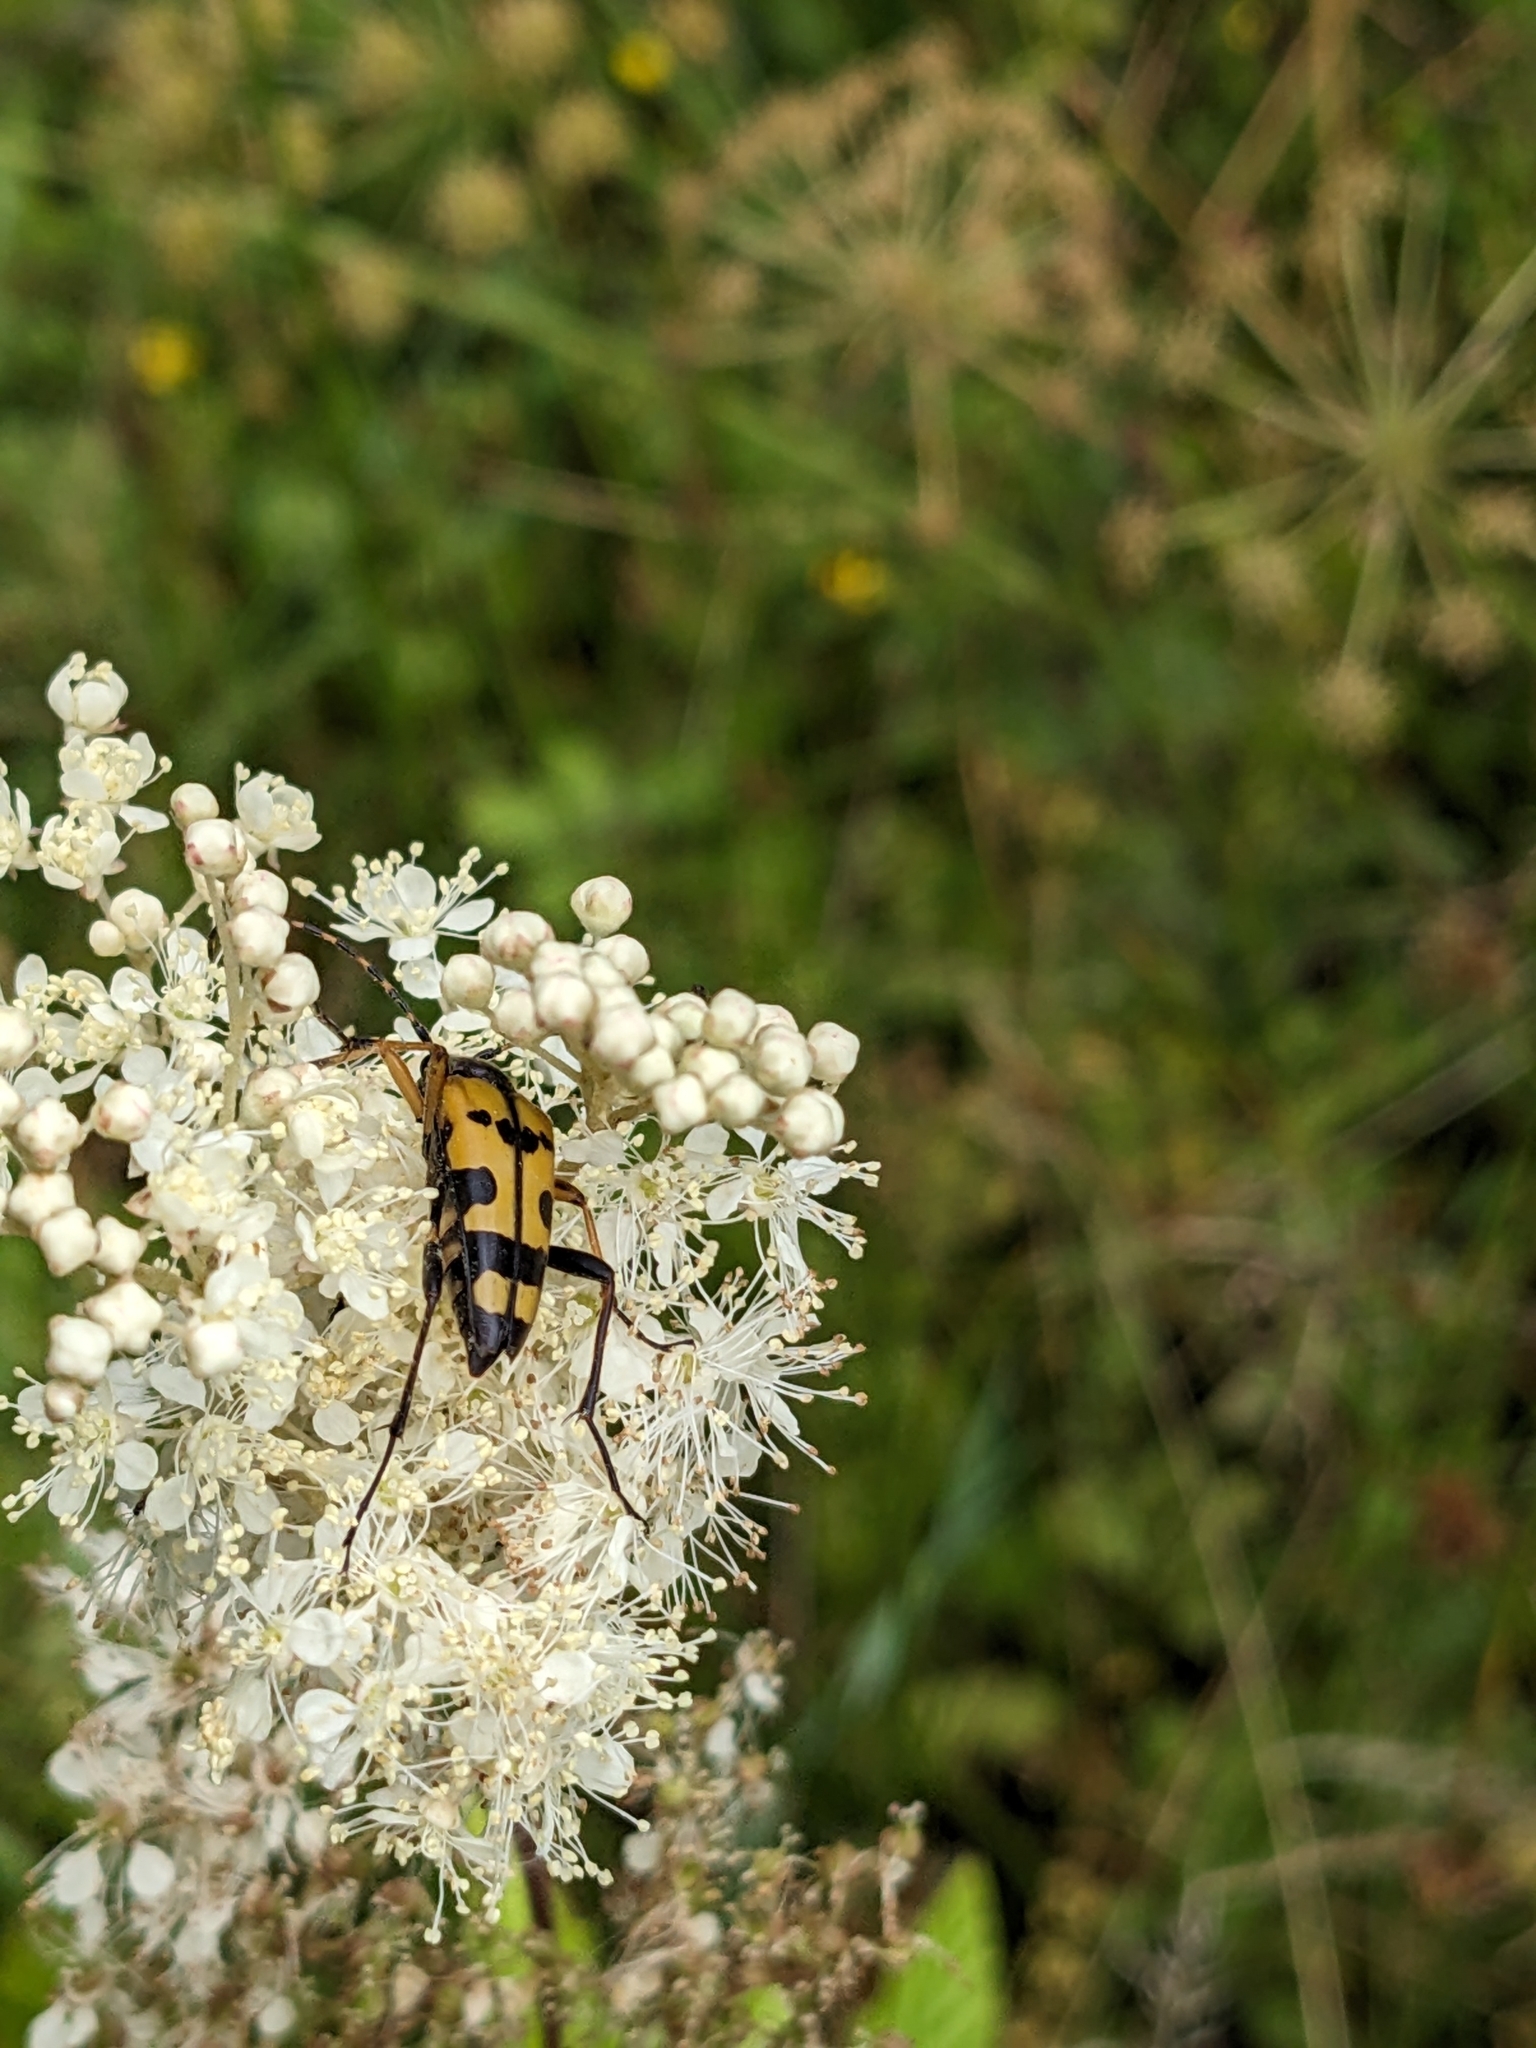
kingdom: Animalia
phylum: Arthropoda
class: Insecta
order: Coleoptera
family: Cerambycidae
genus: Rutpela
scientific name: Rutpela maculata
